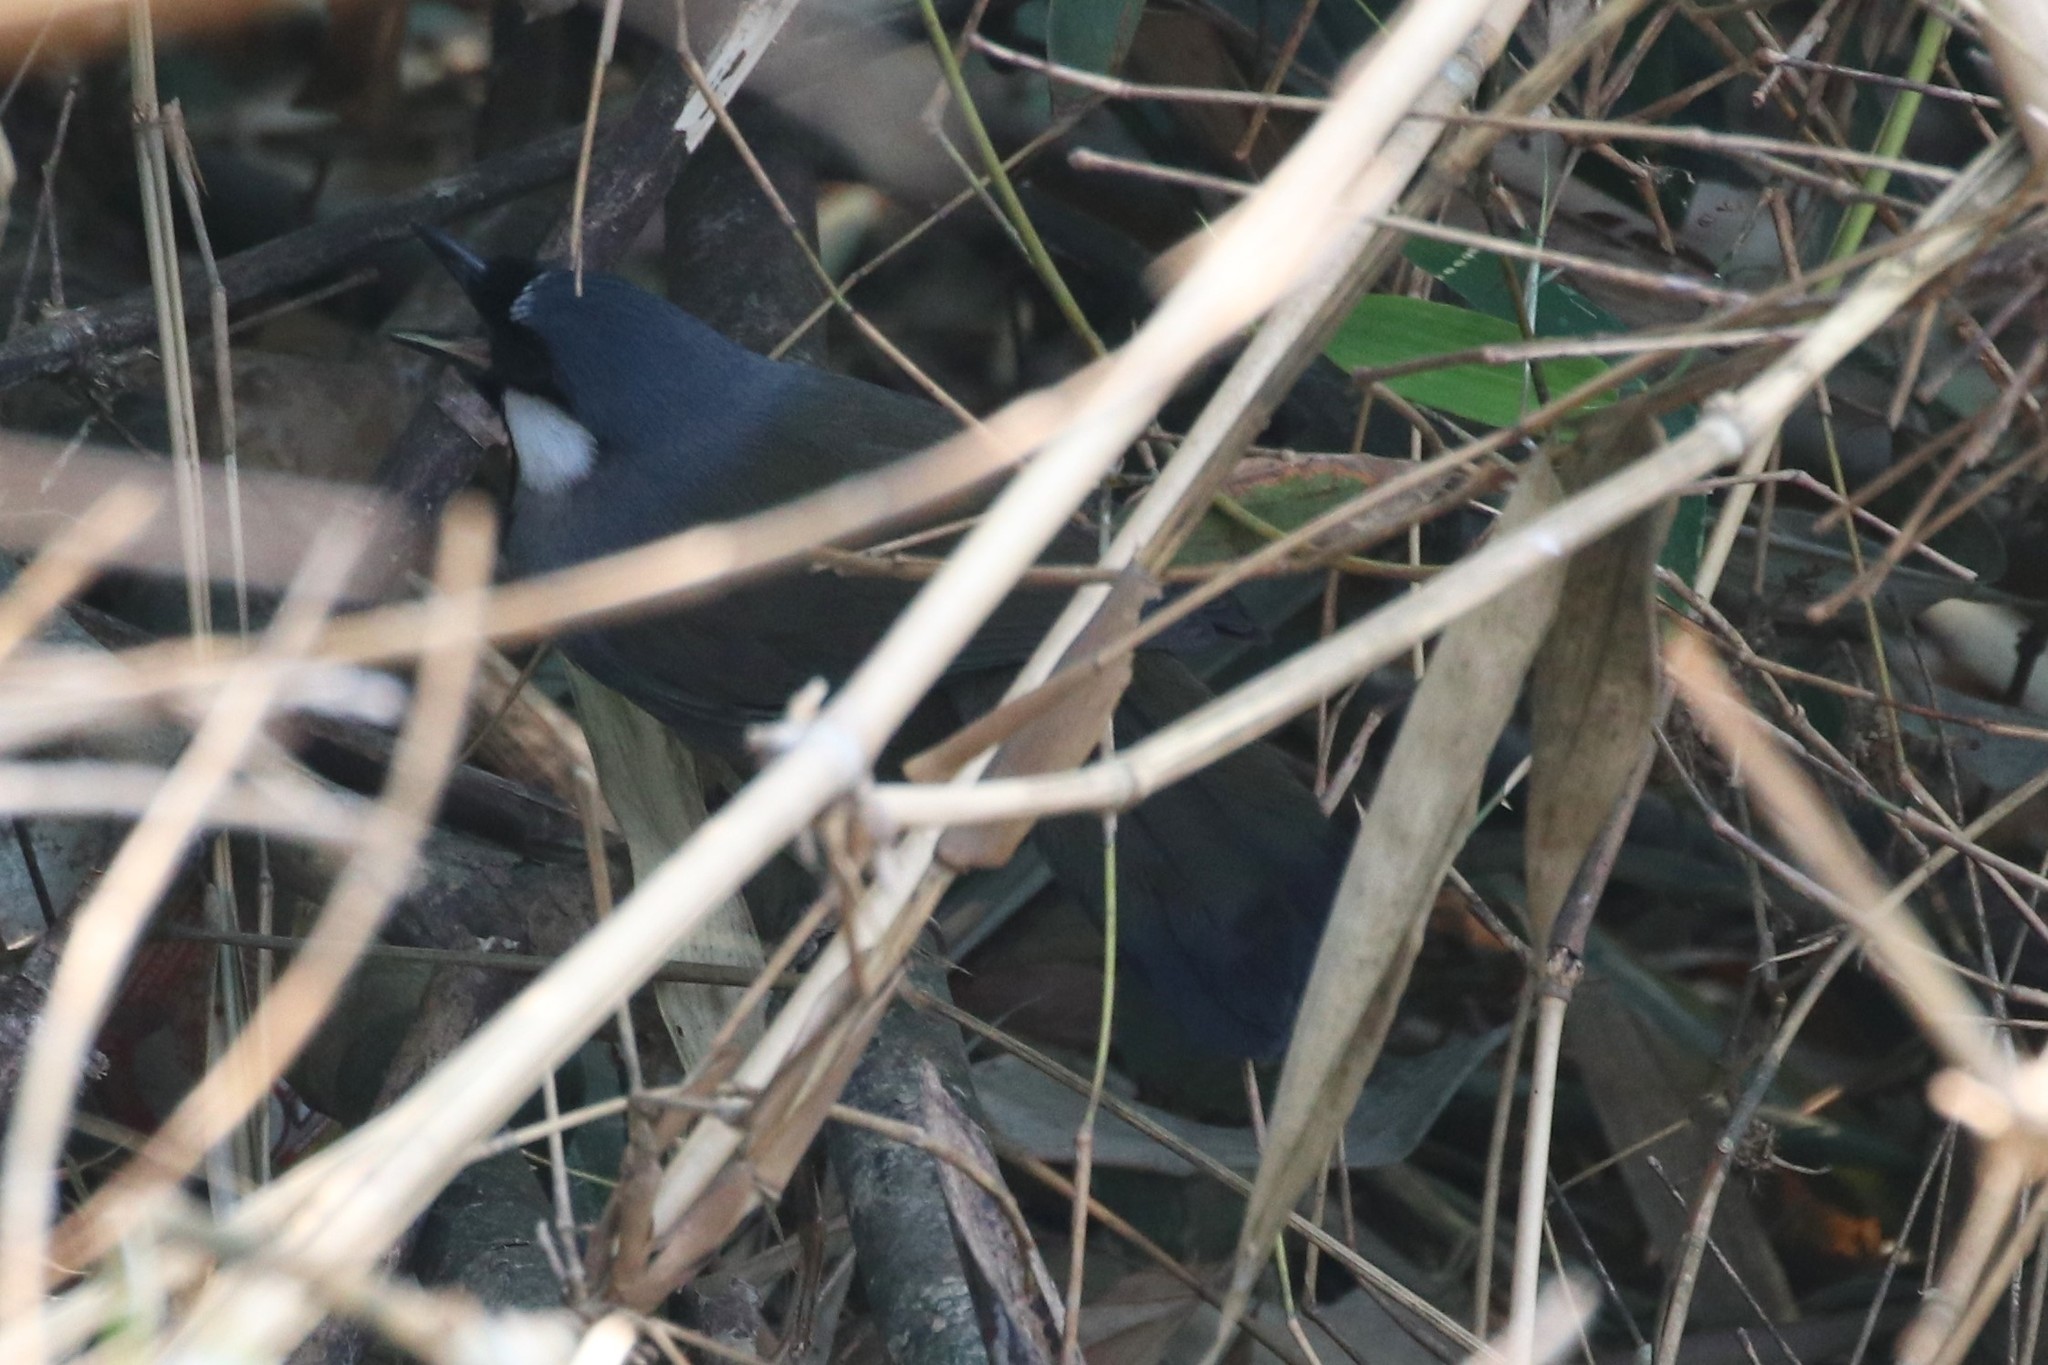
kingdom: Animalia
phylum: Chordata
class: Aves
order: Passeriformes
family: Leiothrichidae
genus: Garrulax
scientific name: Garrulax chinensis
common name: Black-throated laughingthrush
